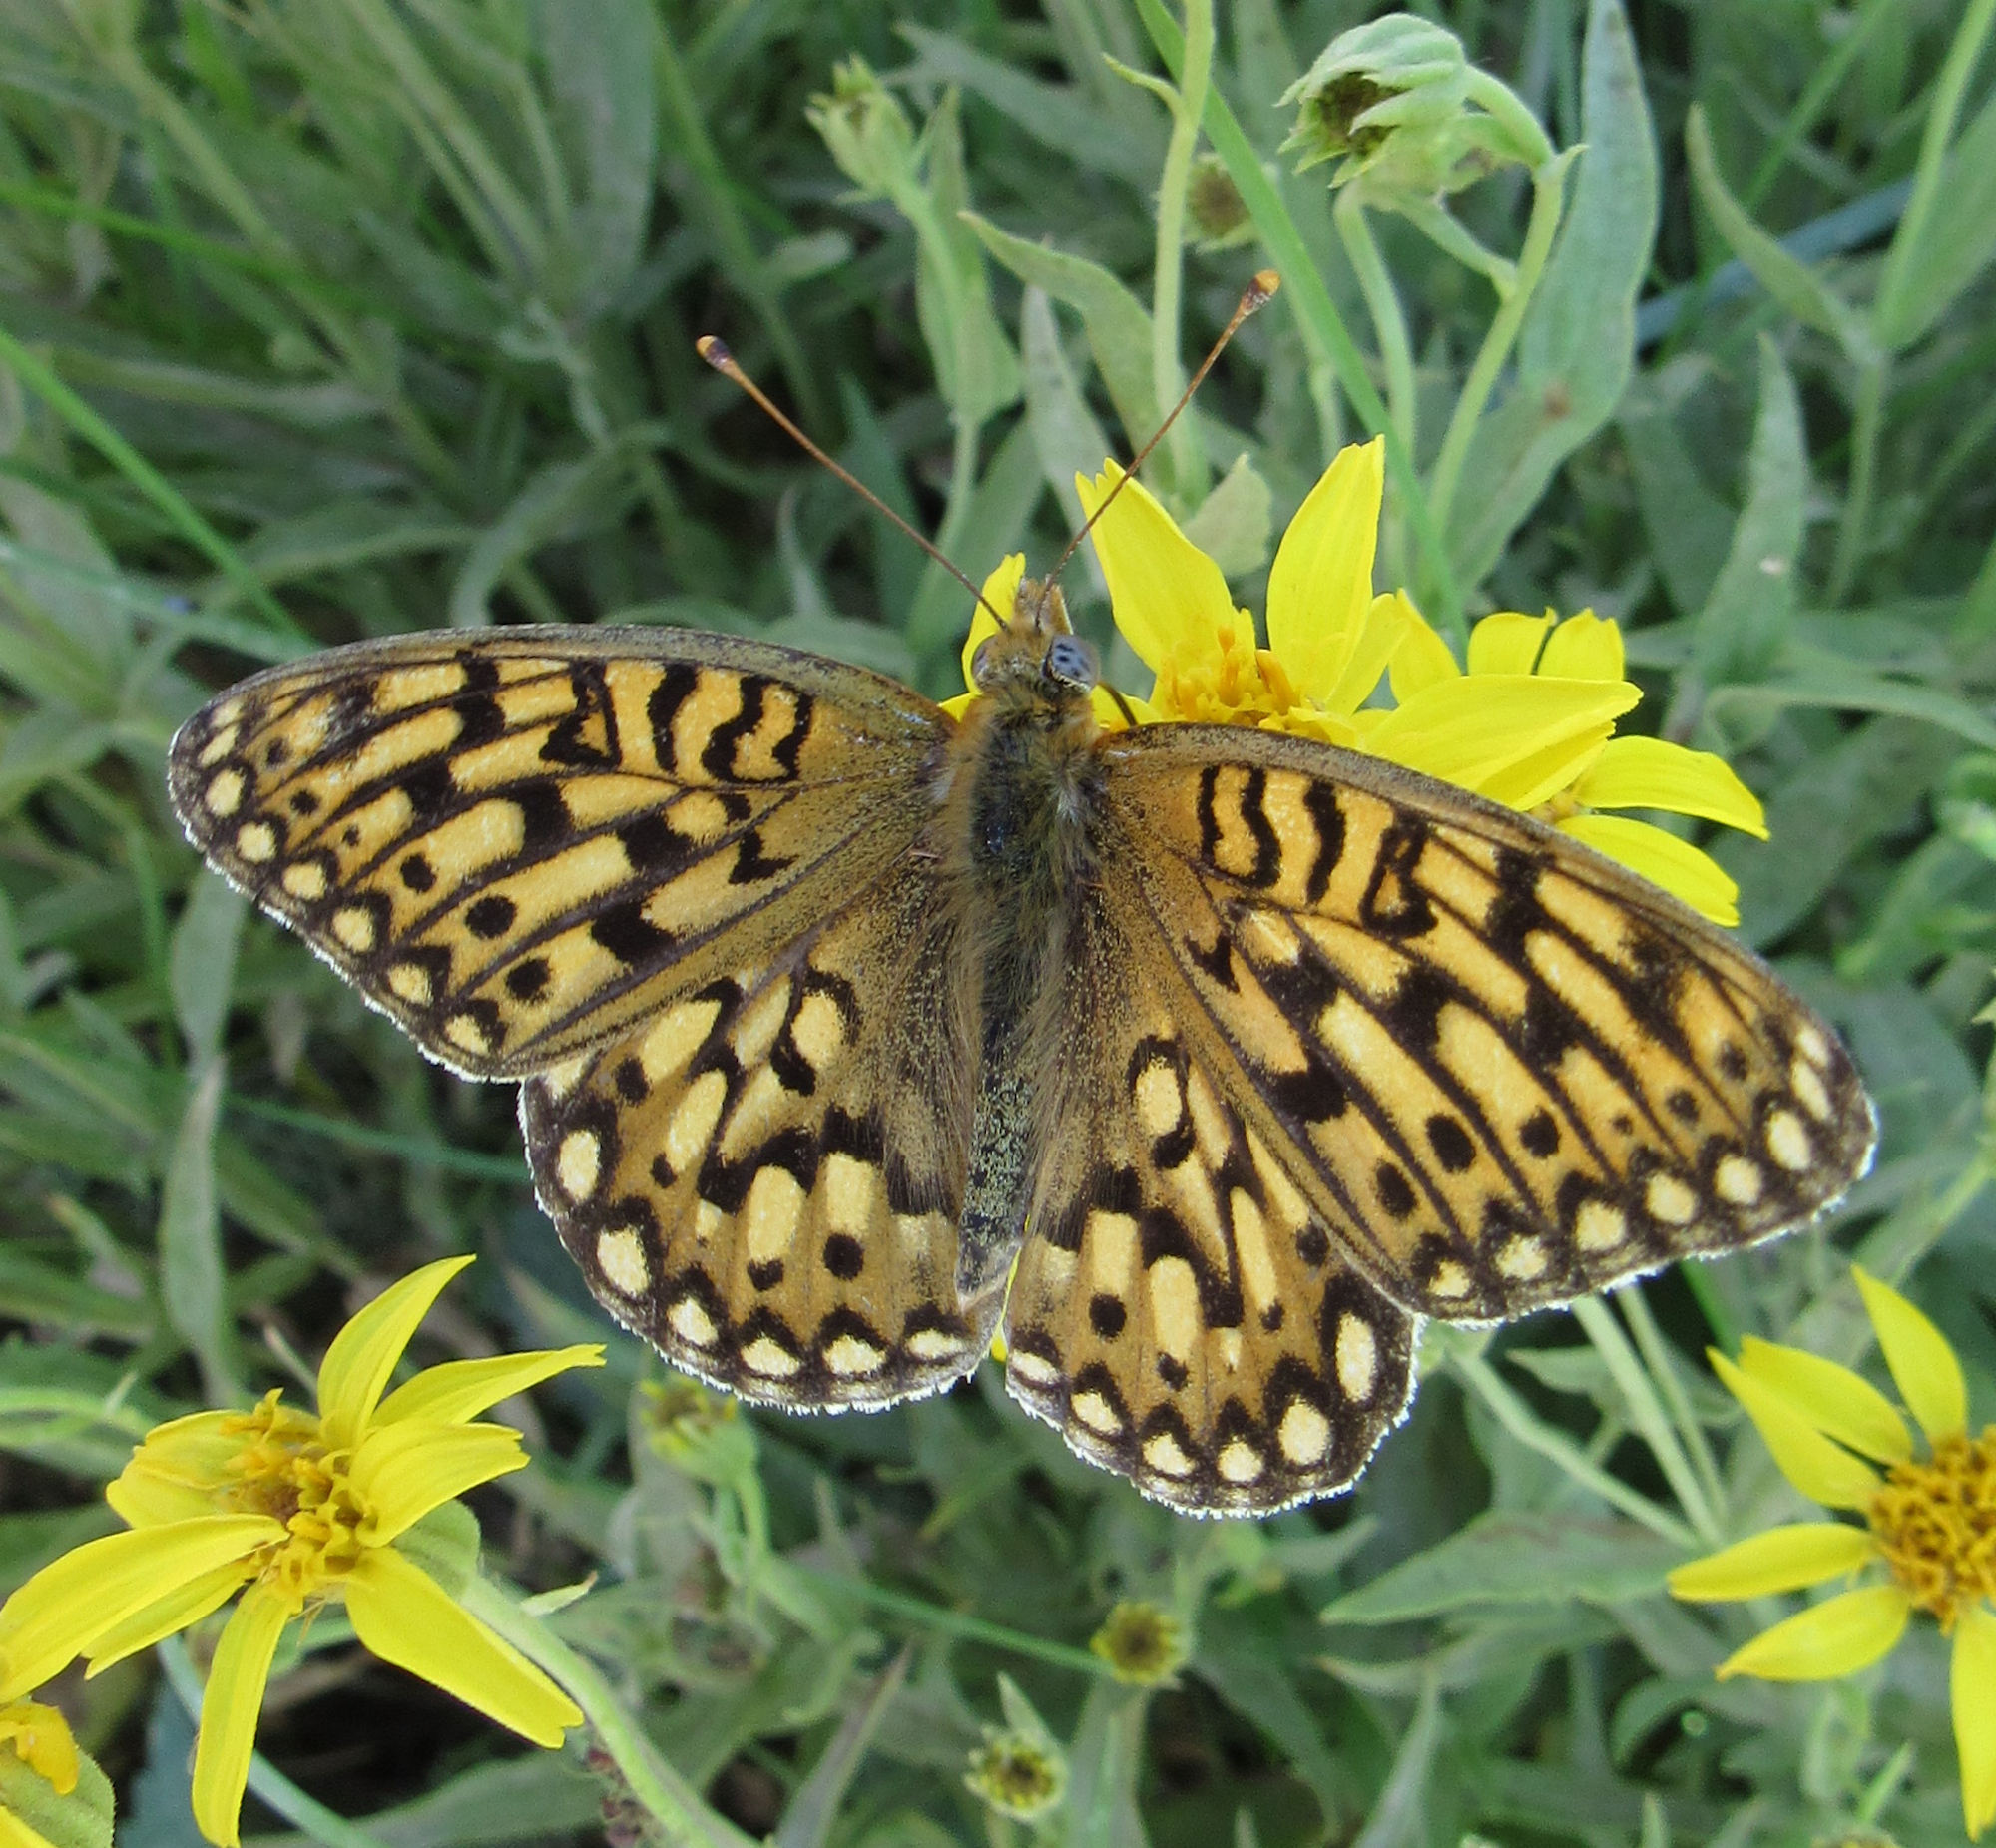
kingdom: Animalia
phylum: Arthropoda
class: Insecta
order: Lepidoptera
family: Nymphalidae
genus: Speyeria
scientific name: Speyeria callippe
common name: Callippe fritillary
